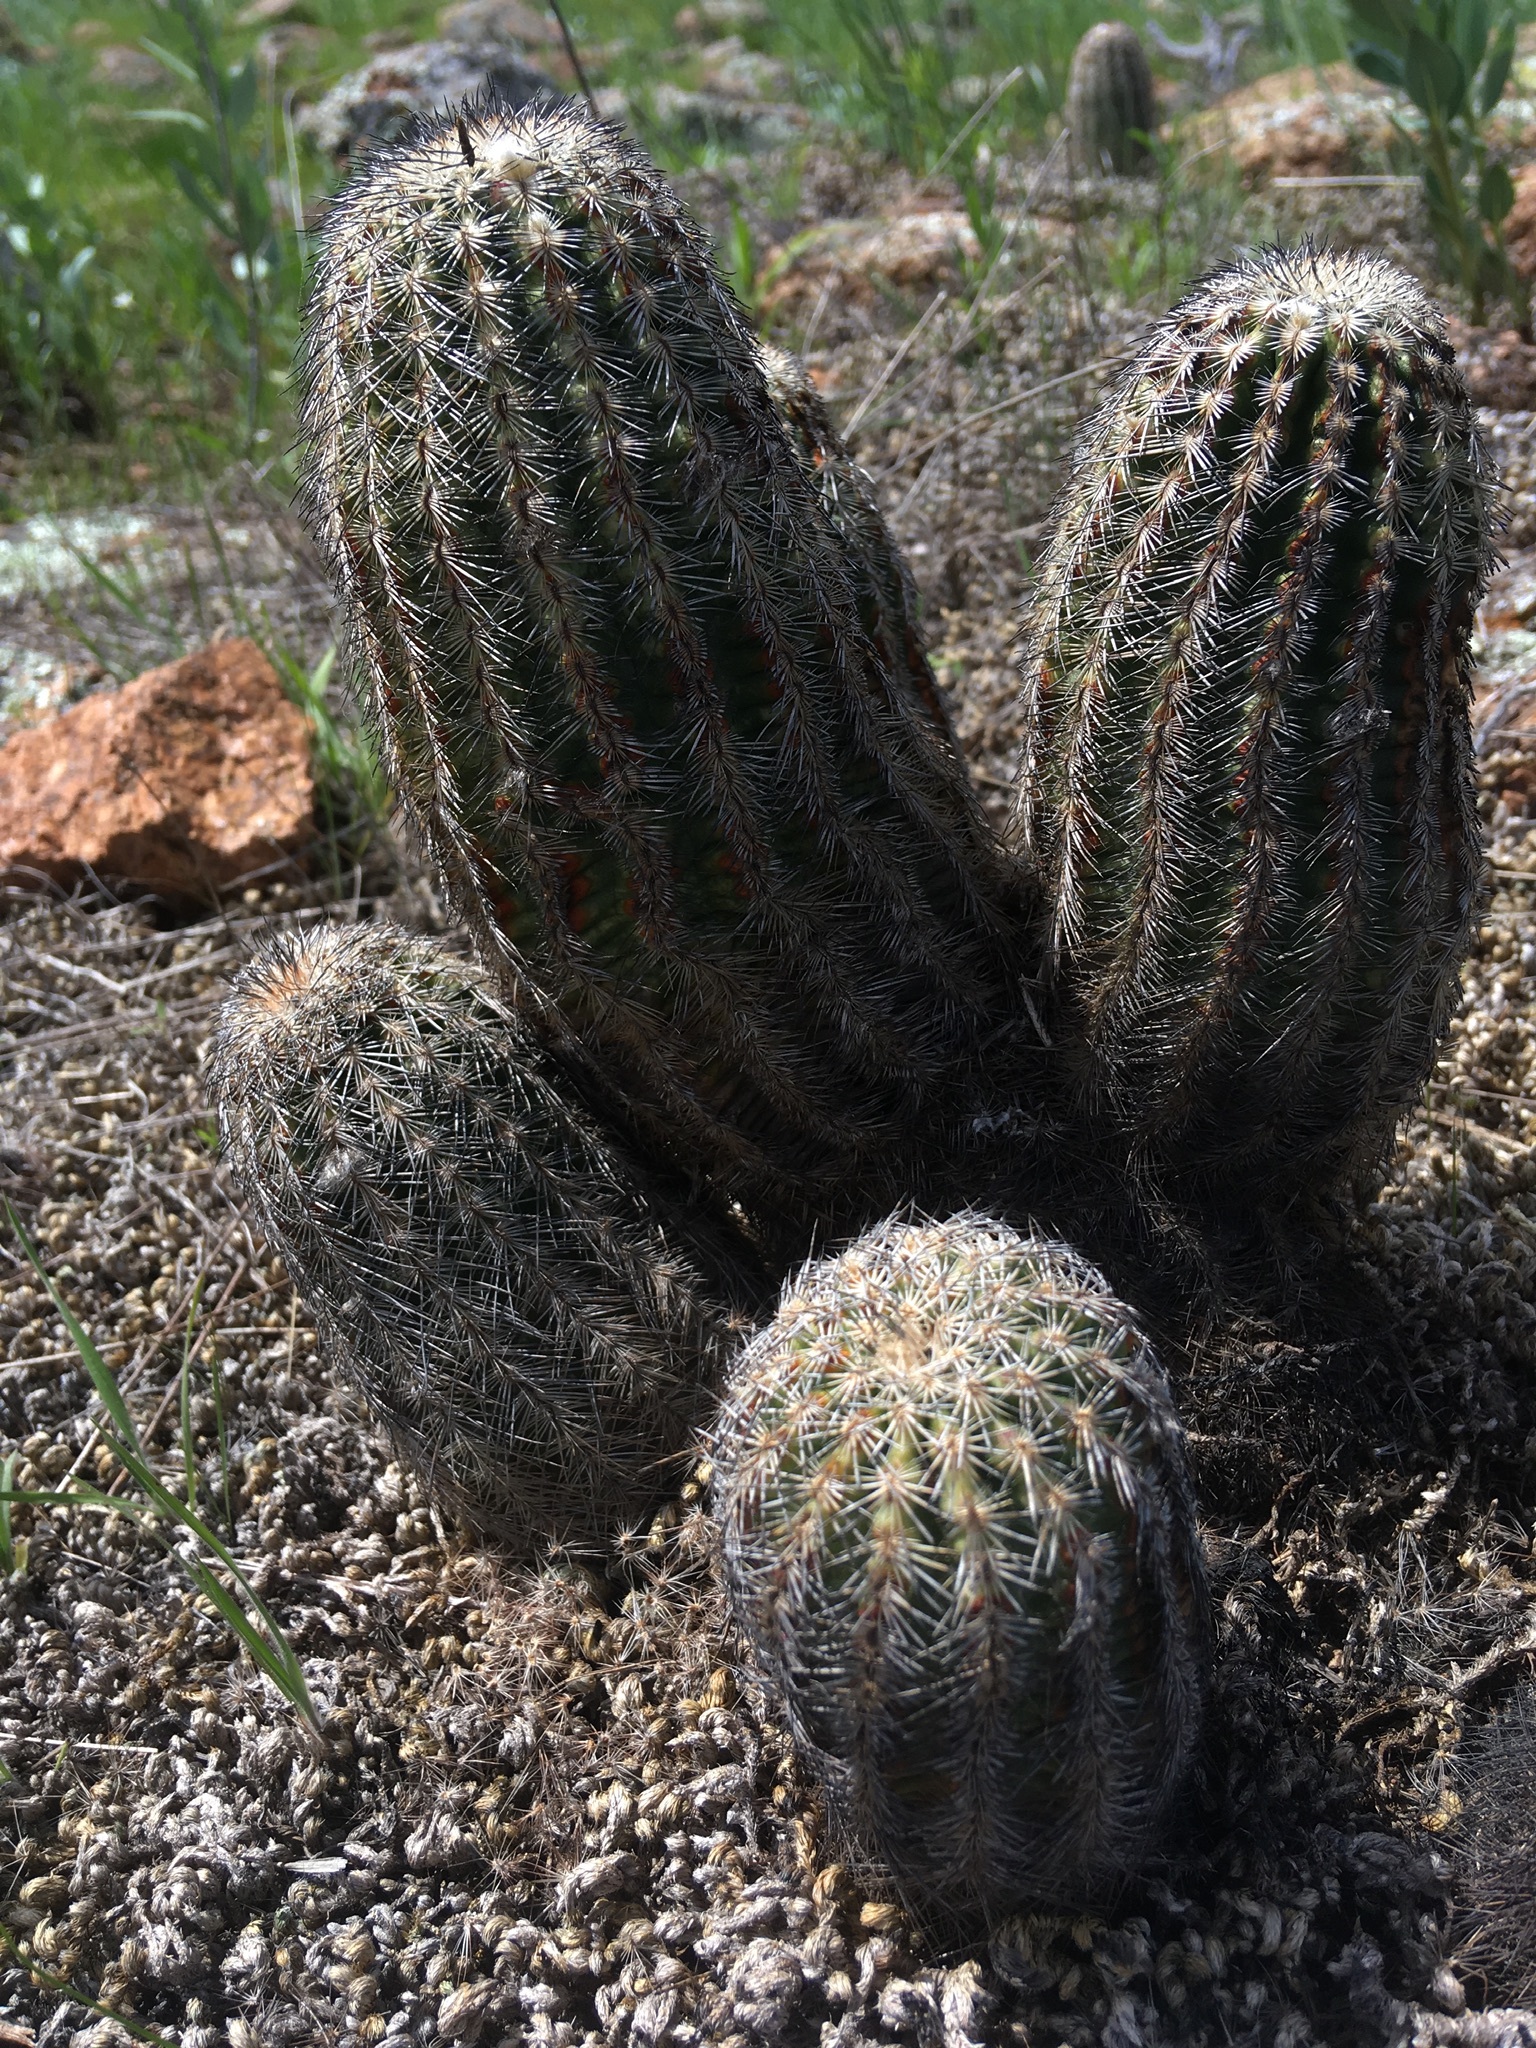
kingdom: Plantae
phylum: Tracheophyta
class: Magnoliopsida
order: Caryophyllales
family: Cactaceae
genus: Echinocereus
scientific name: Echinocereus reichenbachii
